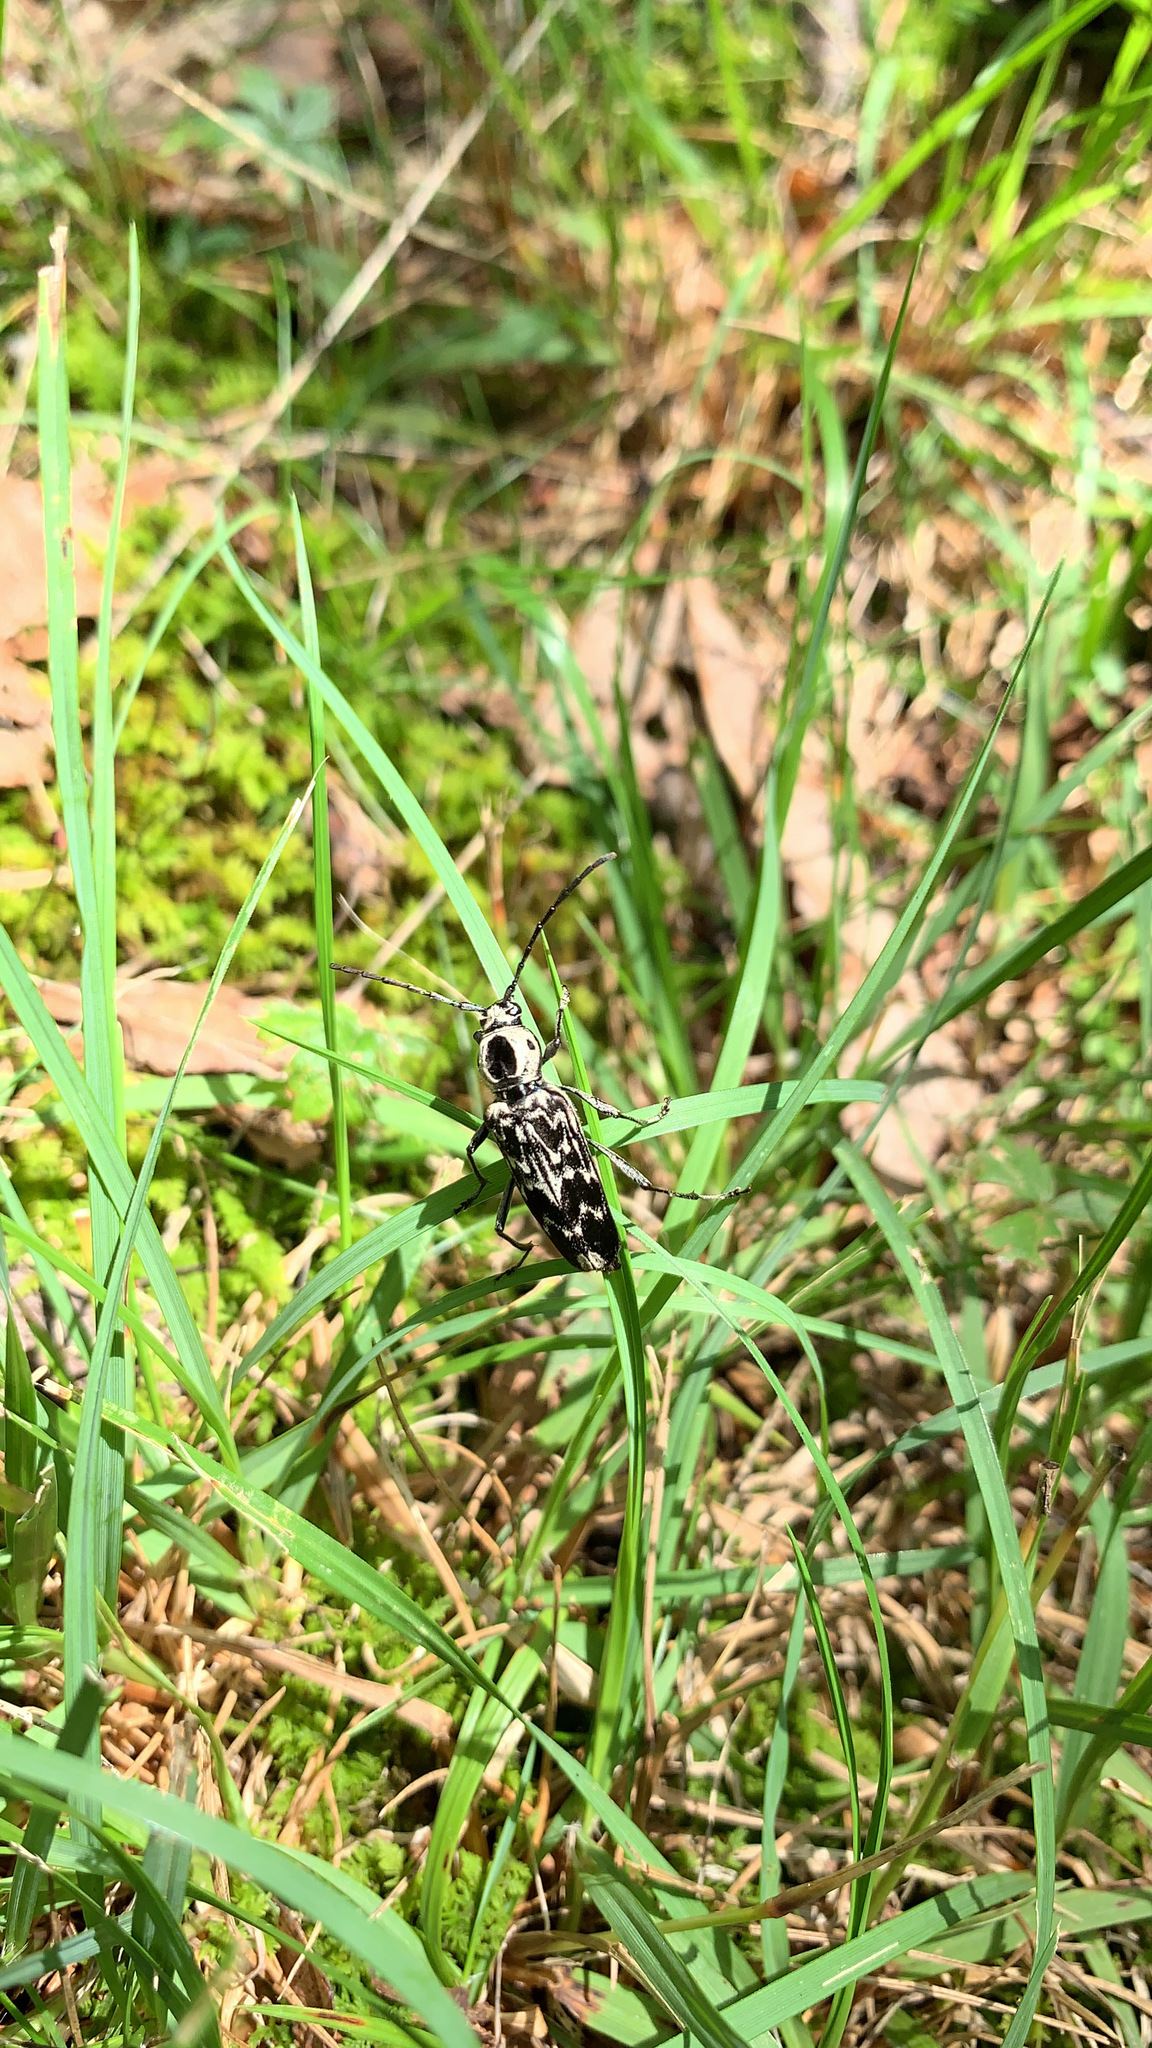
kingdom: Animalia
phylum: Arthropoda
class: Insecta
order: Coleoptera
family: Cerambycidae
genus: Sarosesthes
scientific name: Sarosesthes fulminans
